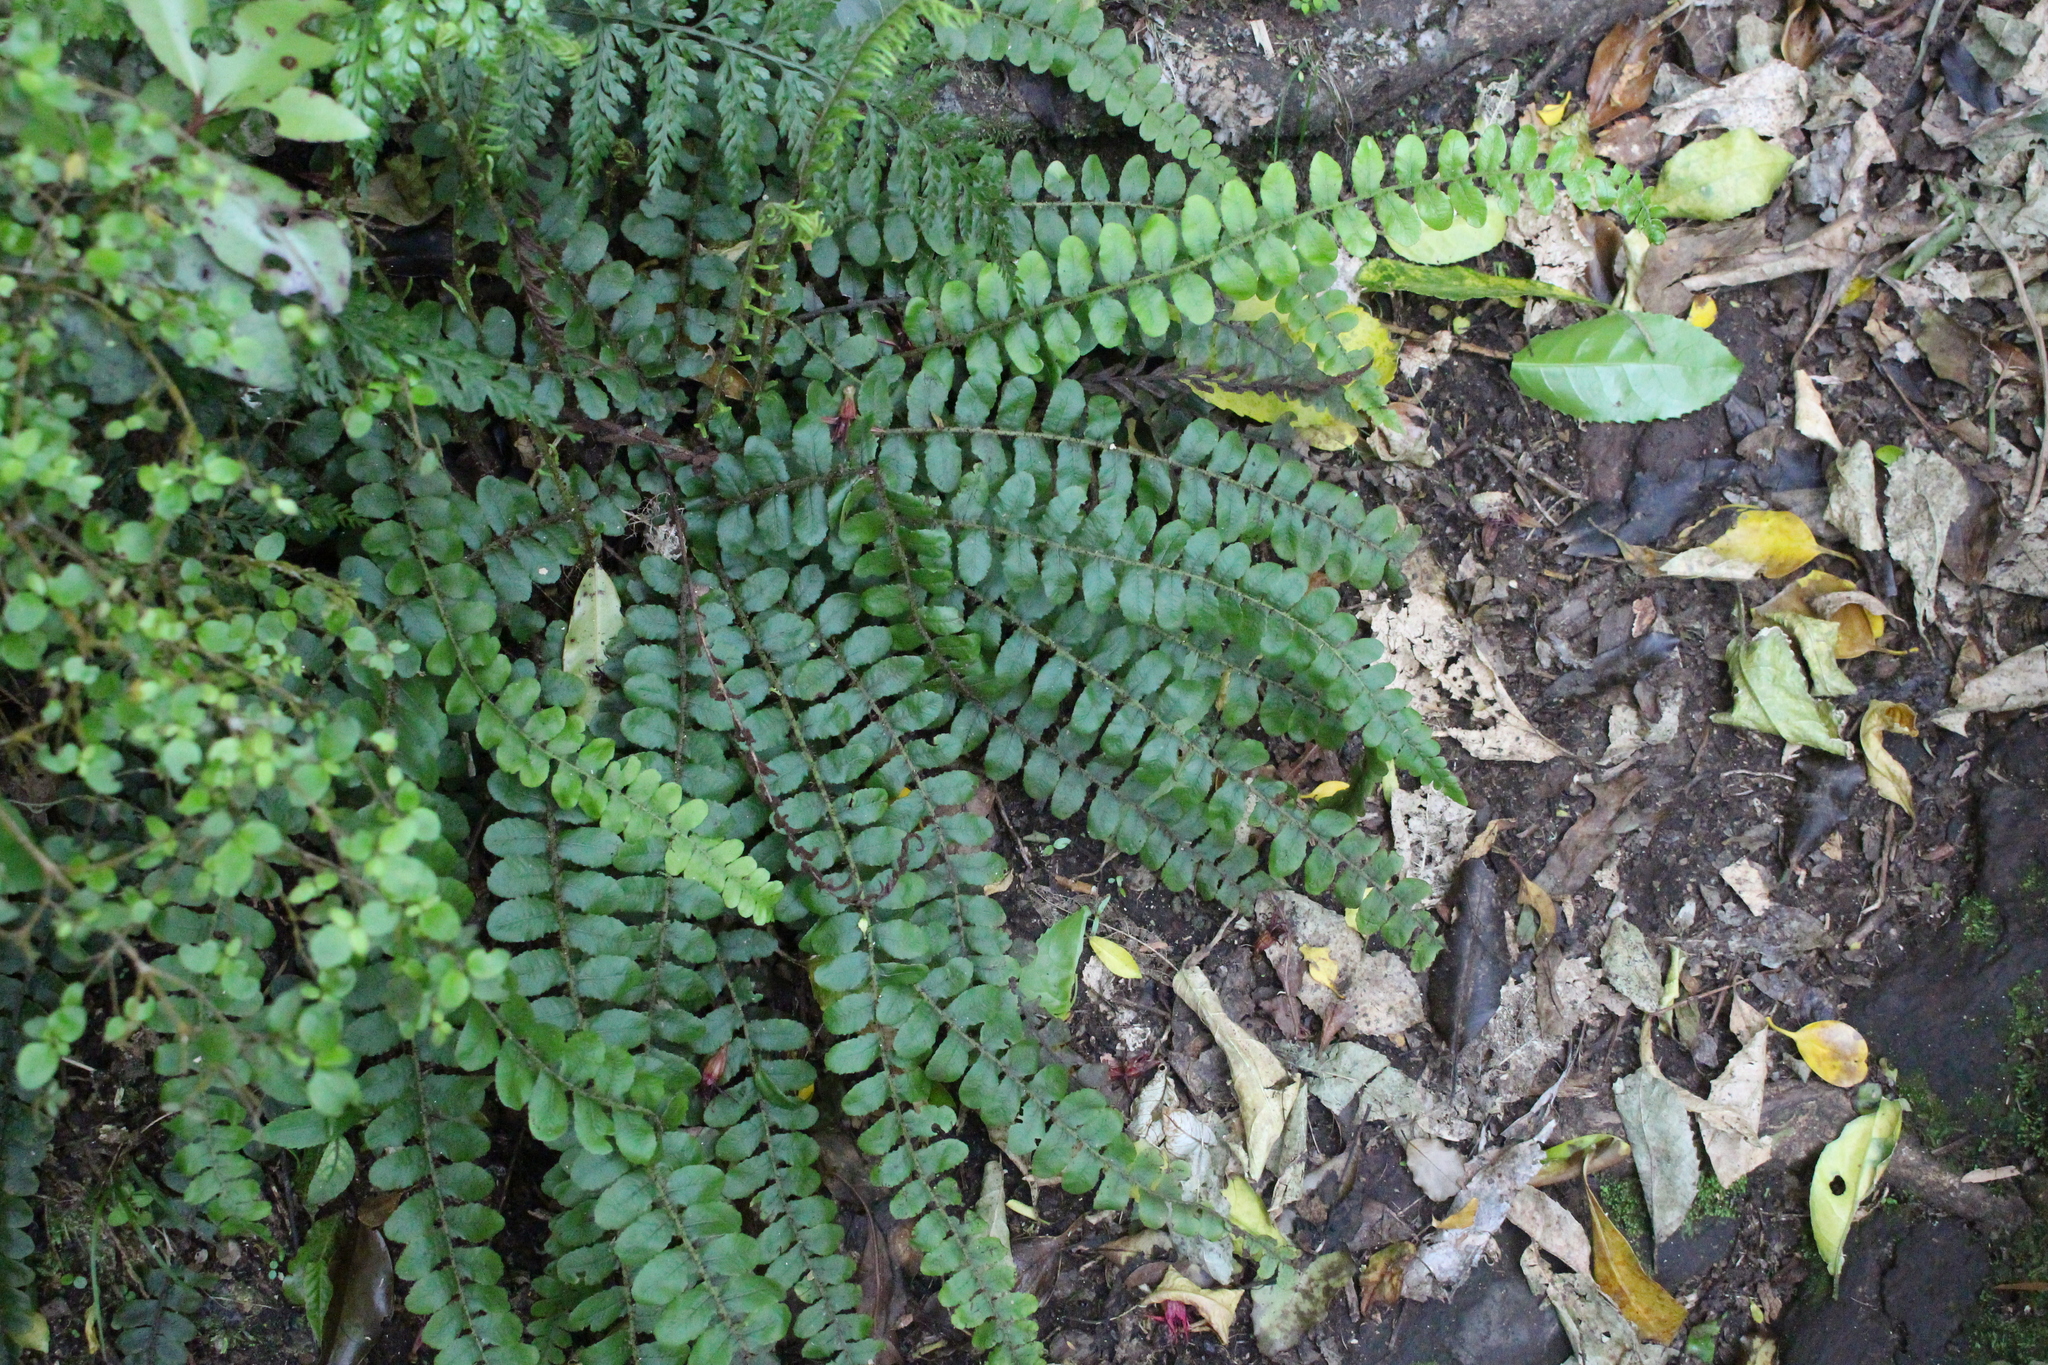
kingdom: Plantae
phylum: Tracheophyta
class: Polypodiopsida
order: Polypodiales
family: Blechnaceae
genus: Cranfillia
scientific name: Cranfillia fluviatilis
